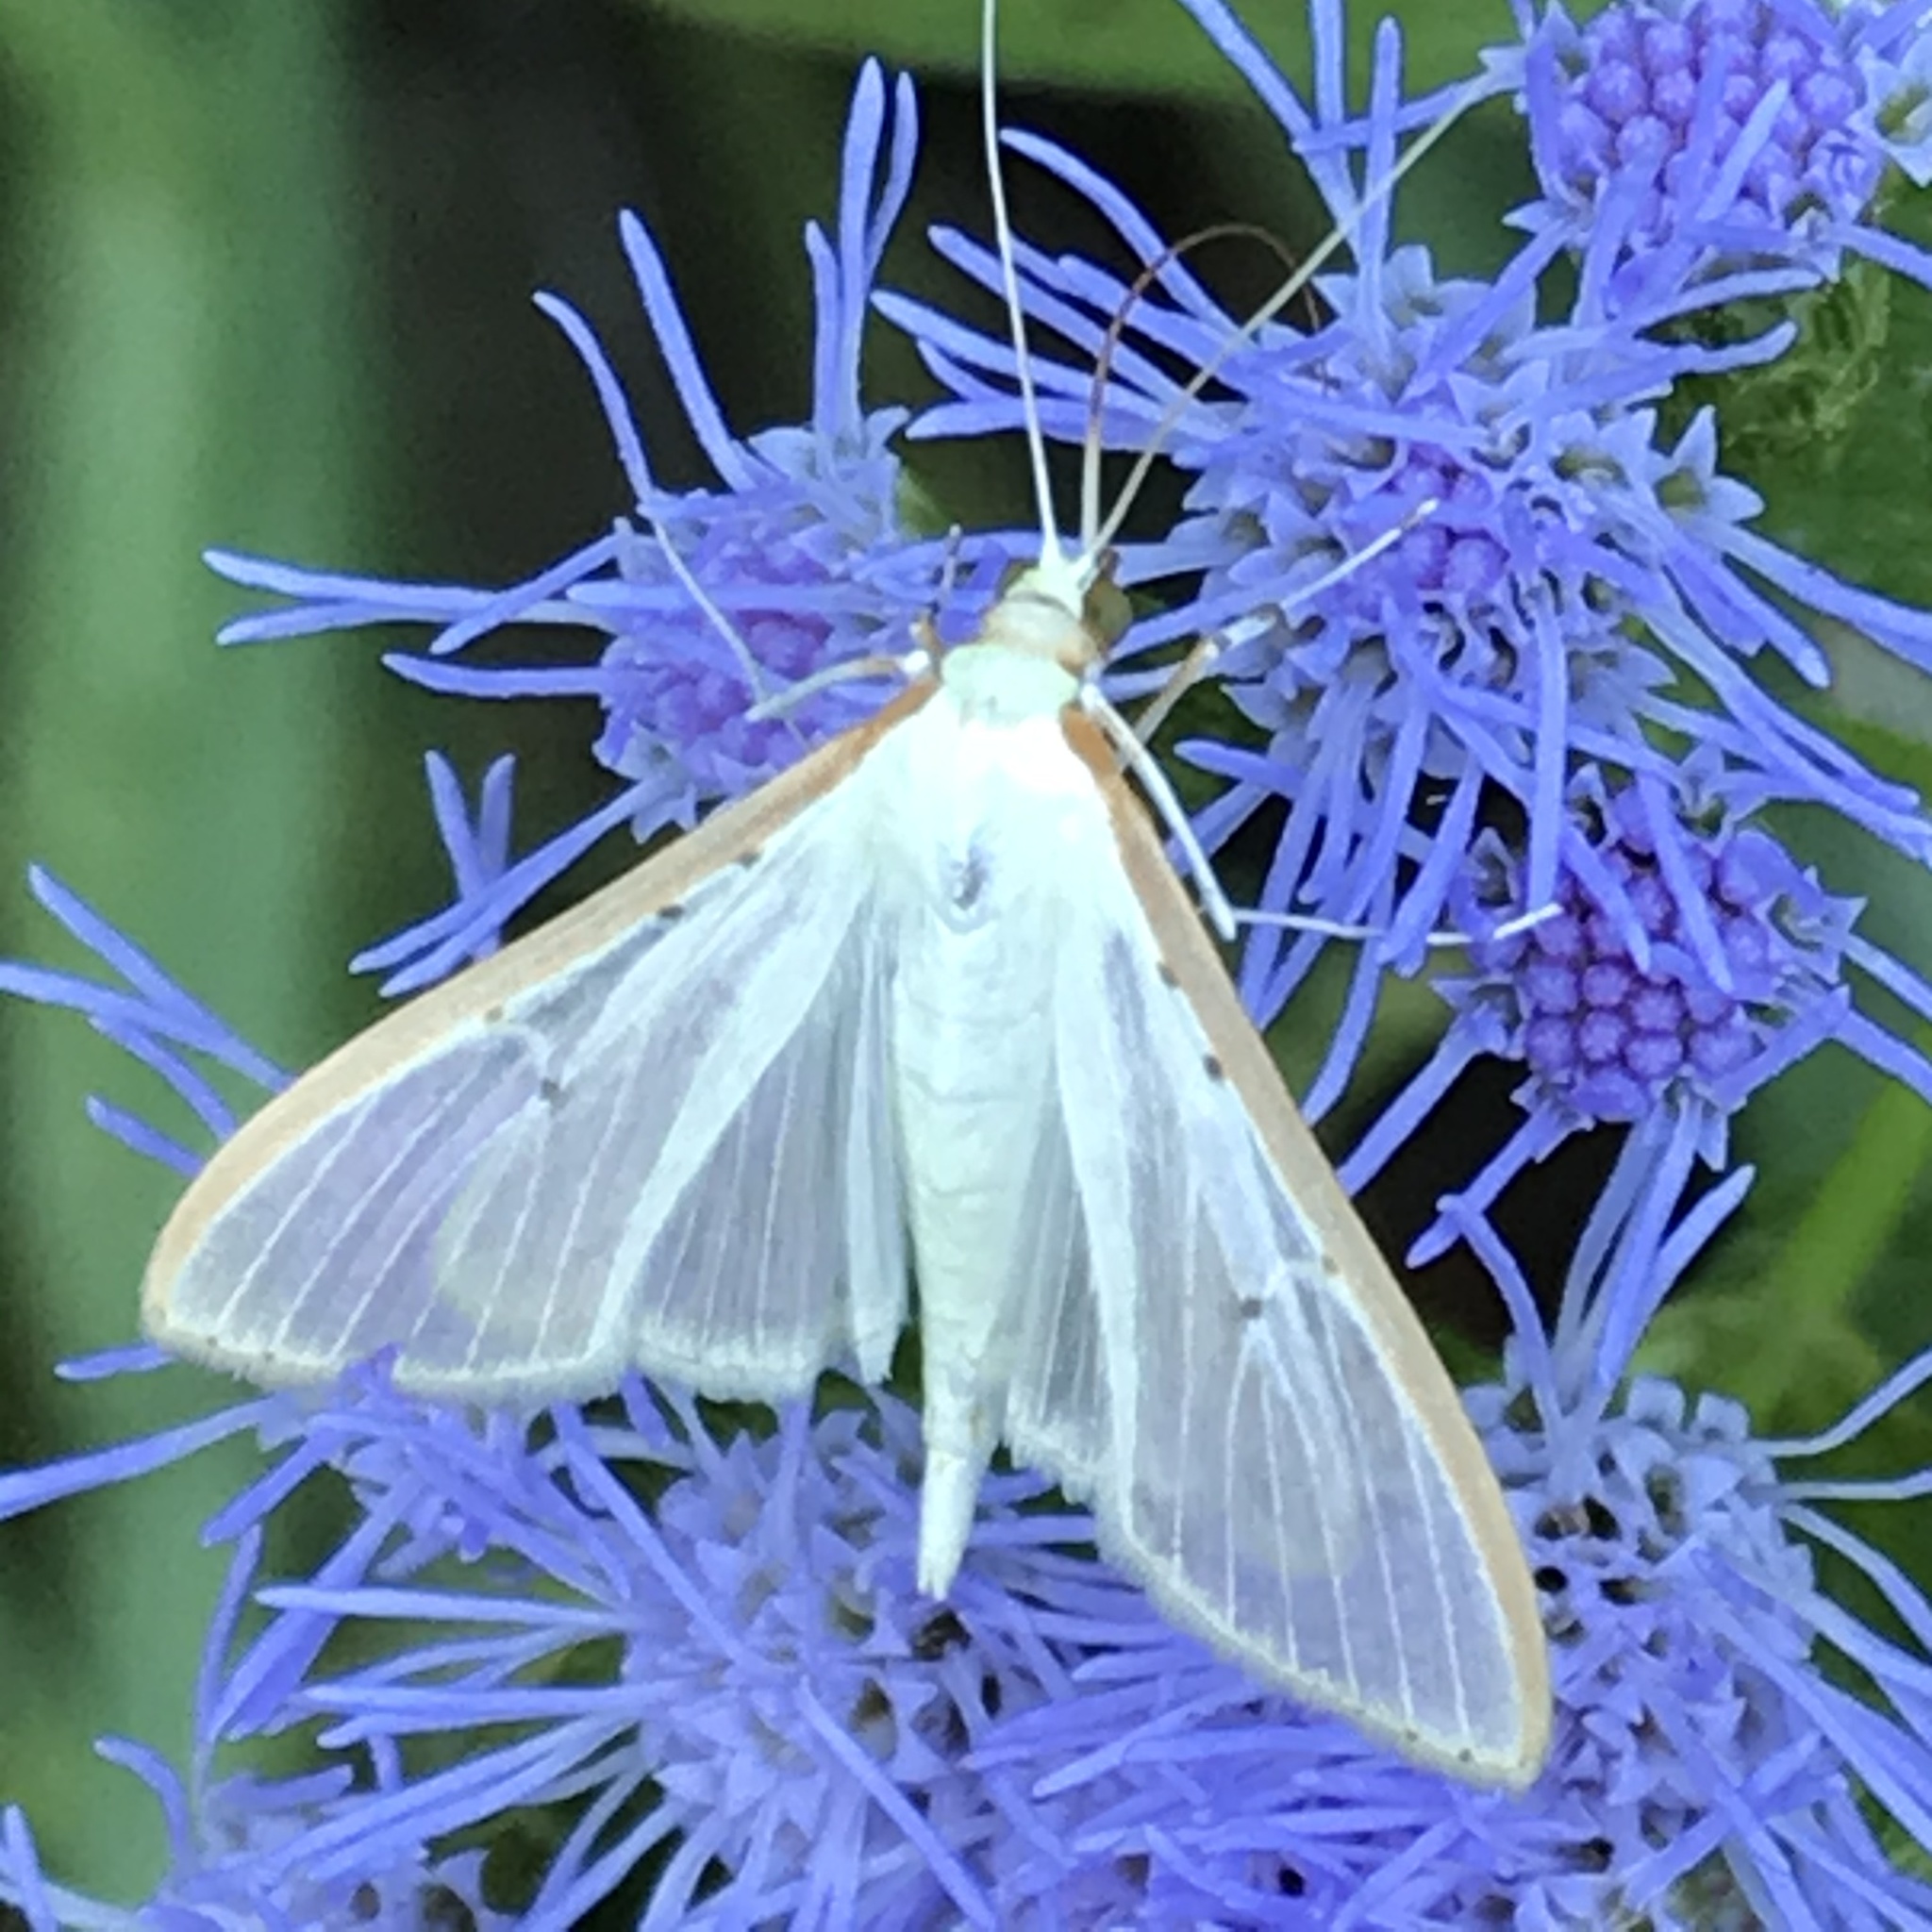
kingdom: Animalia
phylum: Arthropoda
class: Insecta
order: Lepidoptera
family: Crambidae
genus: Palpita
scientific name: Palpita quadristigmalis
